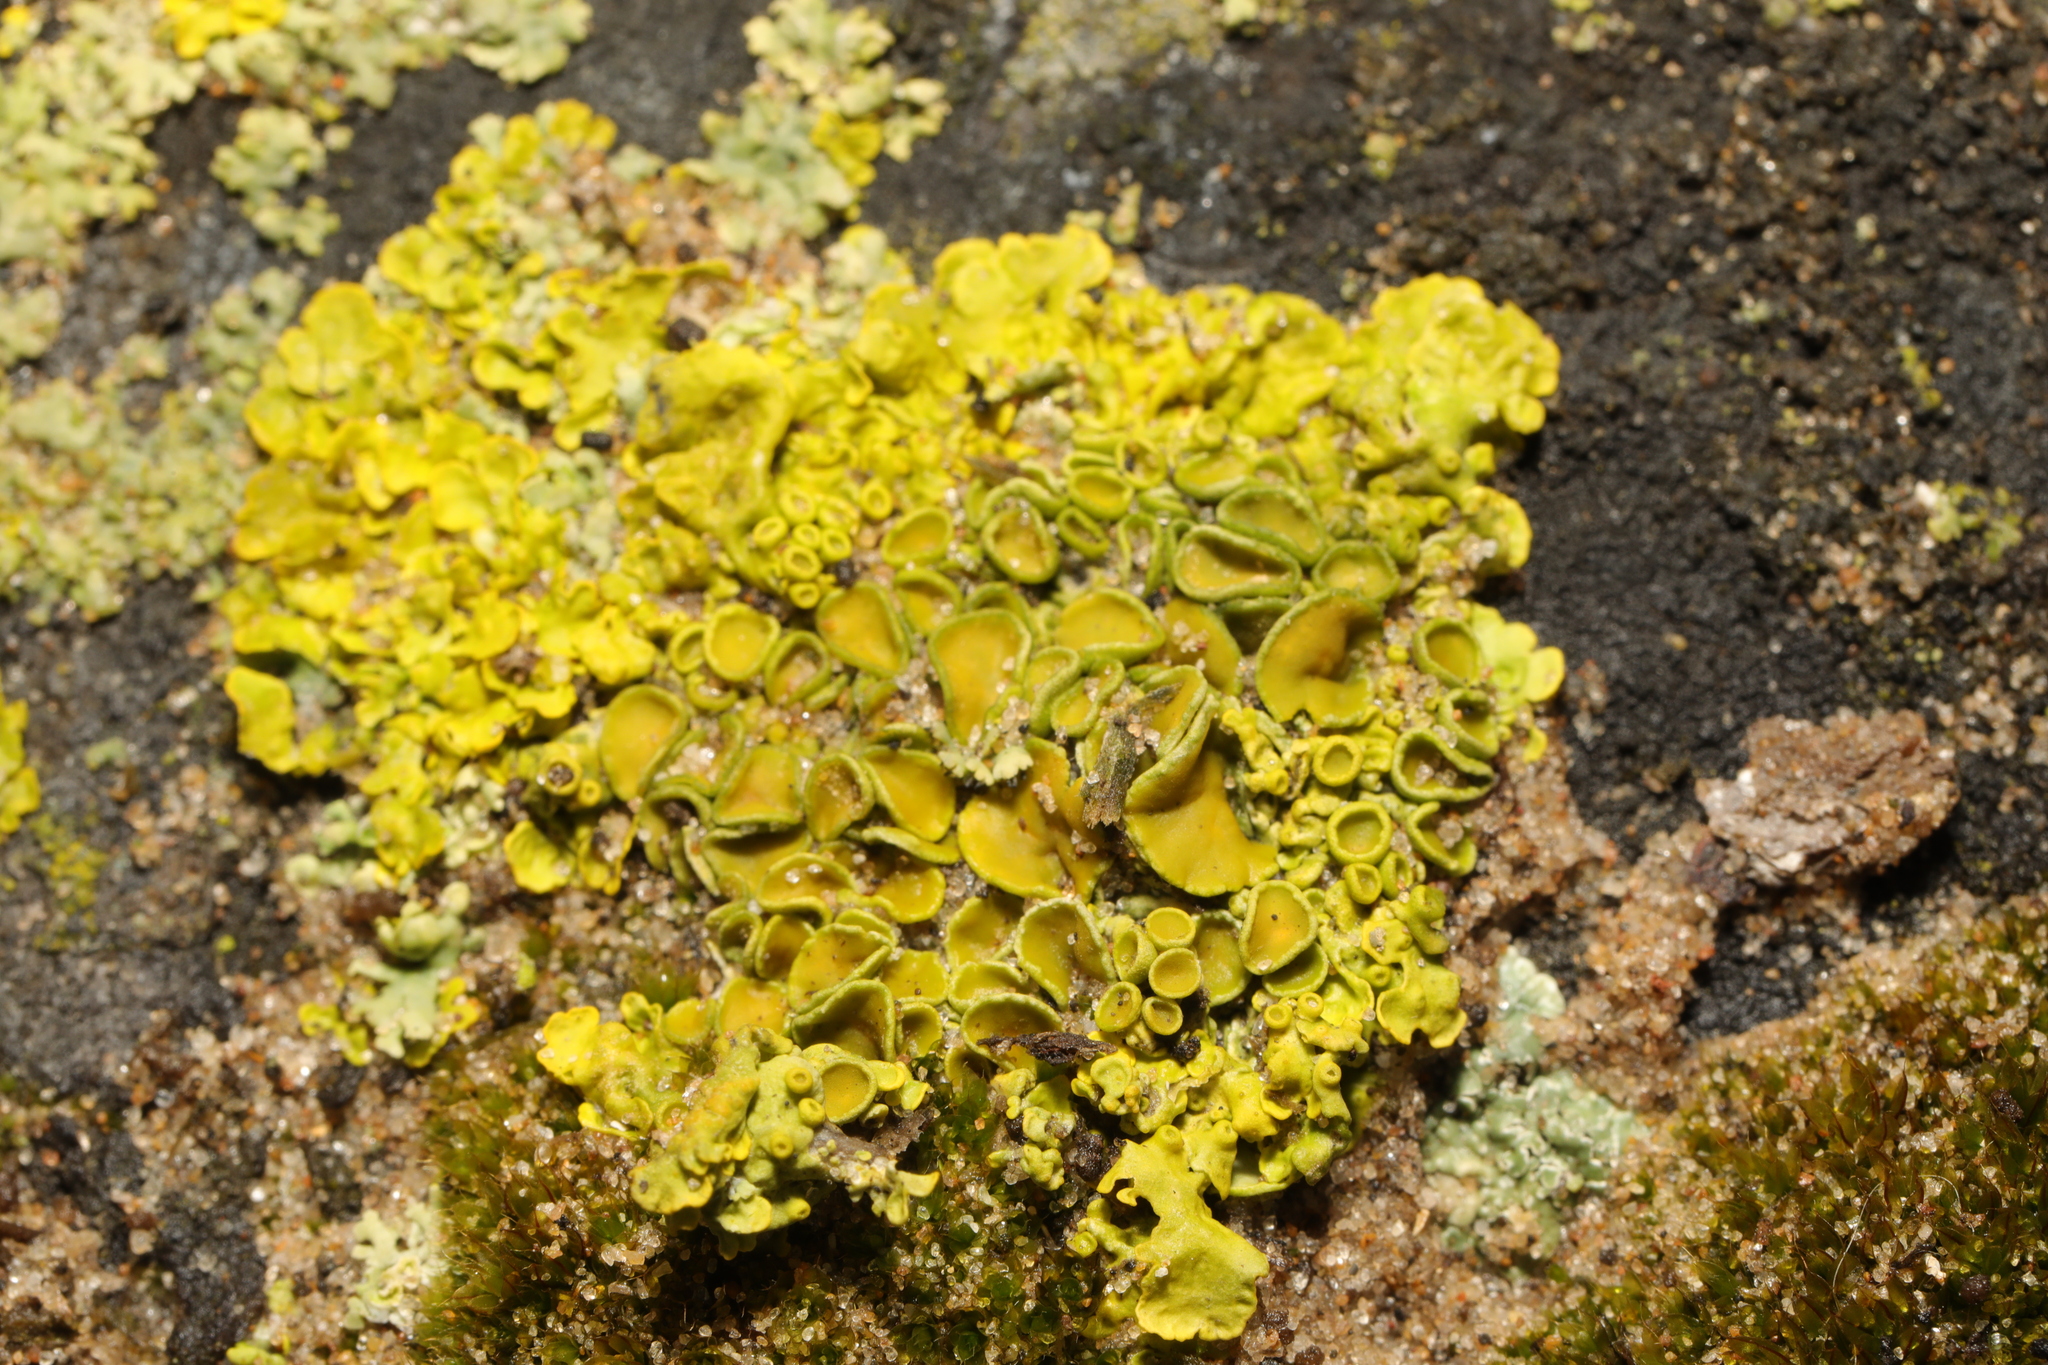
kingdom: Fungi
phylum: Ascomycota
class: Lecanoromycetes
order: Teloschistales
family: Teloschistaceae
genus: Xanthoria
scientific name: Xanthoria parietina
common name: Common orange lichen
